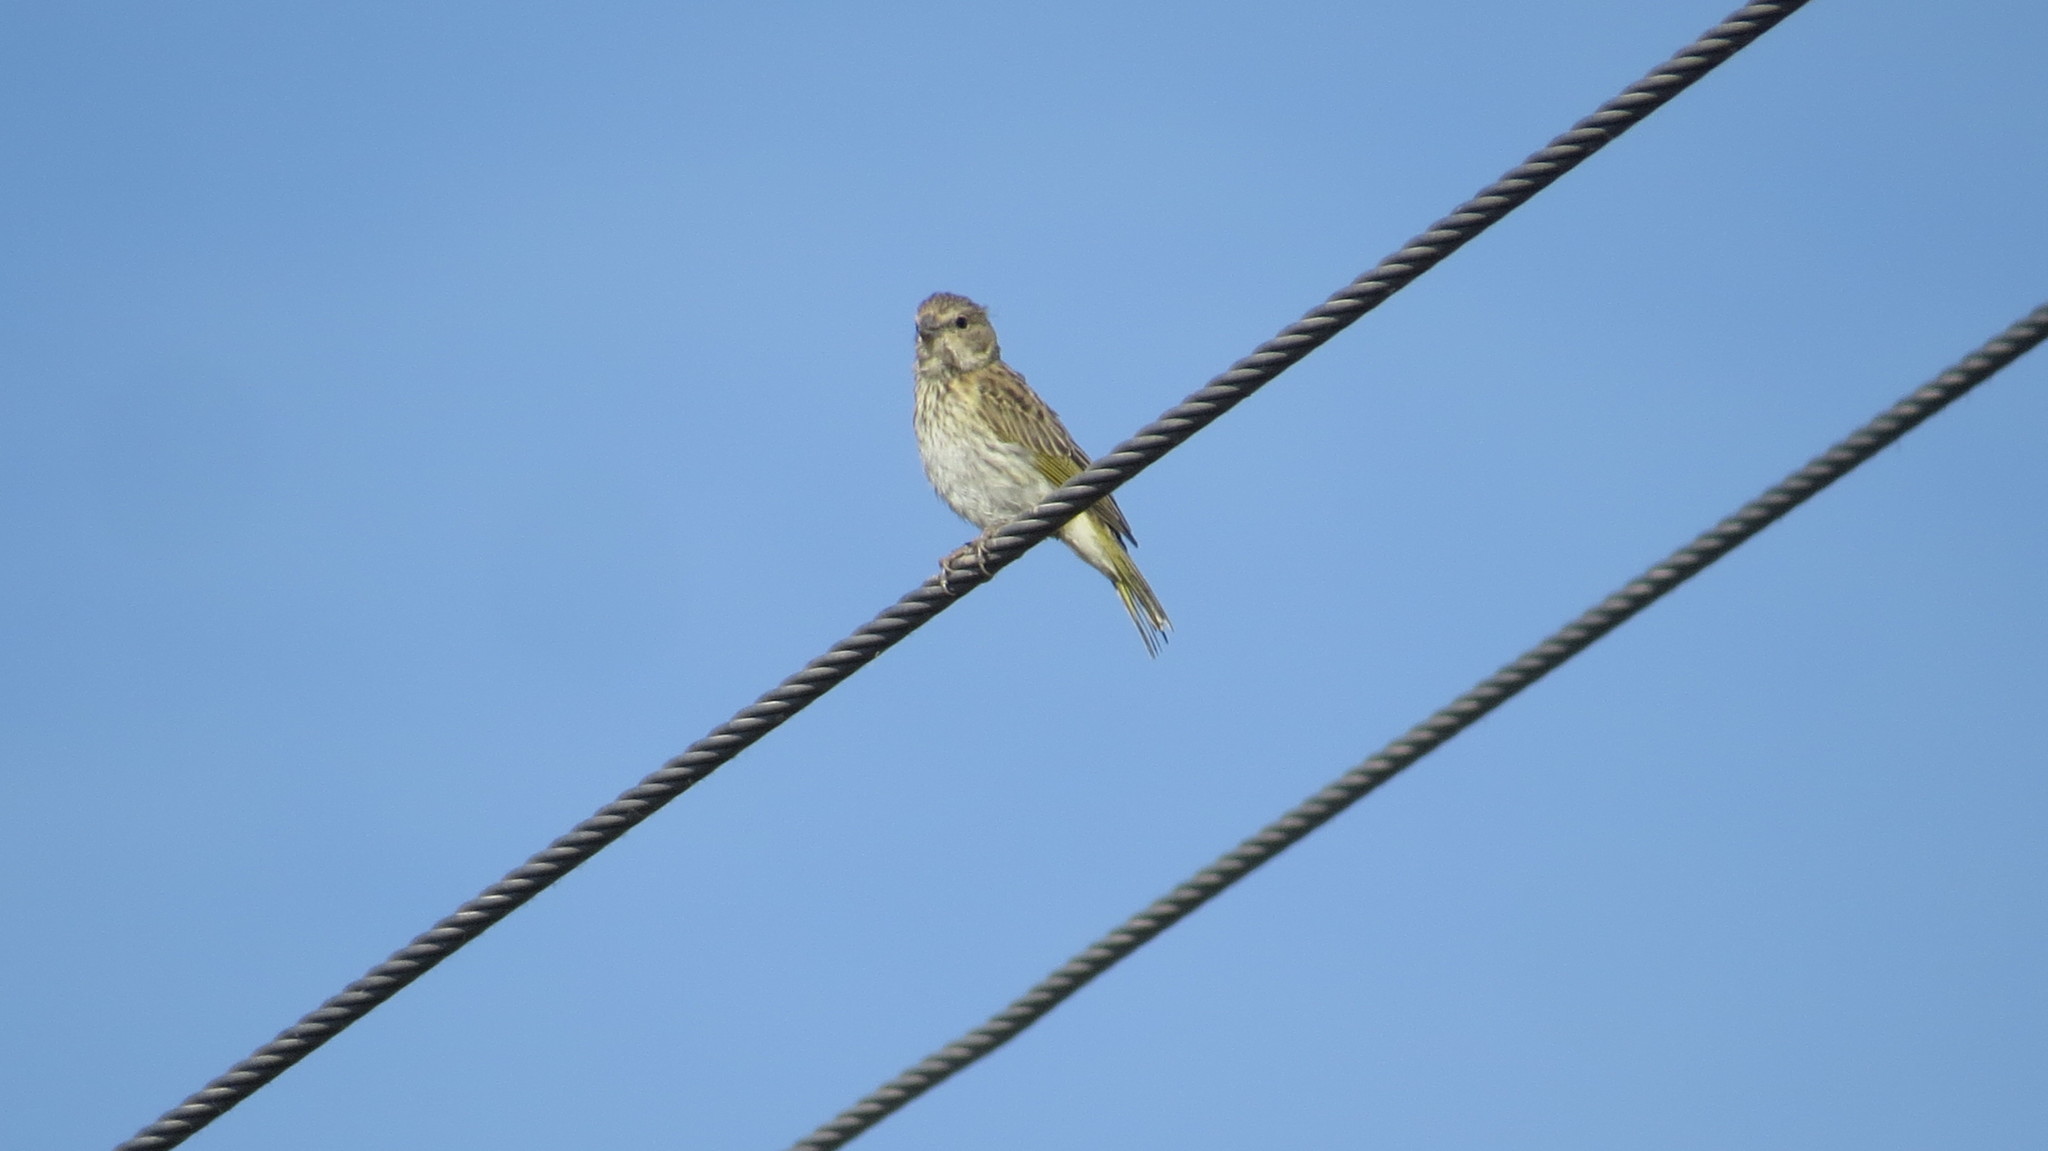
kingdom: Animalia
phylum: Chordata
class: Aves
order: Passeriformes
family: Thraupidae
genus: Sicalis
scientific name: Sicalis flaveola
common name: Saffron finch
